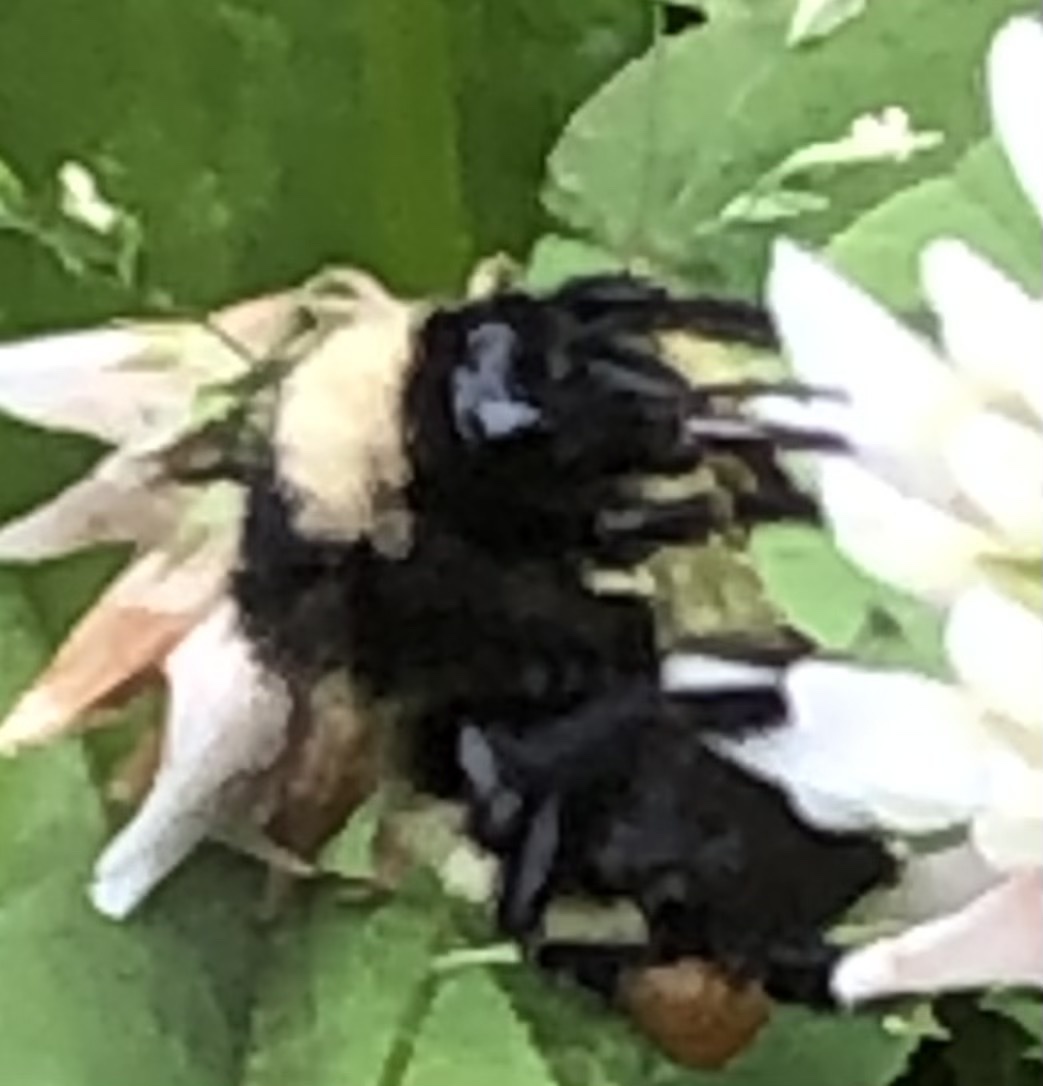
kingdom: Animalia
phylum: Arthropoda
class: Insecta
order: Hymenoptera
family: Apidae
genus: Bombus
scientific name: Bombus pensylvanicus
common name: Bumble bee
